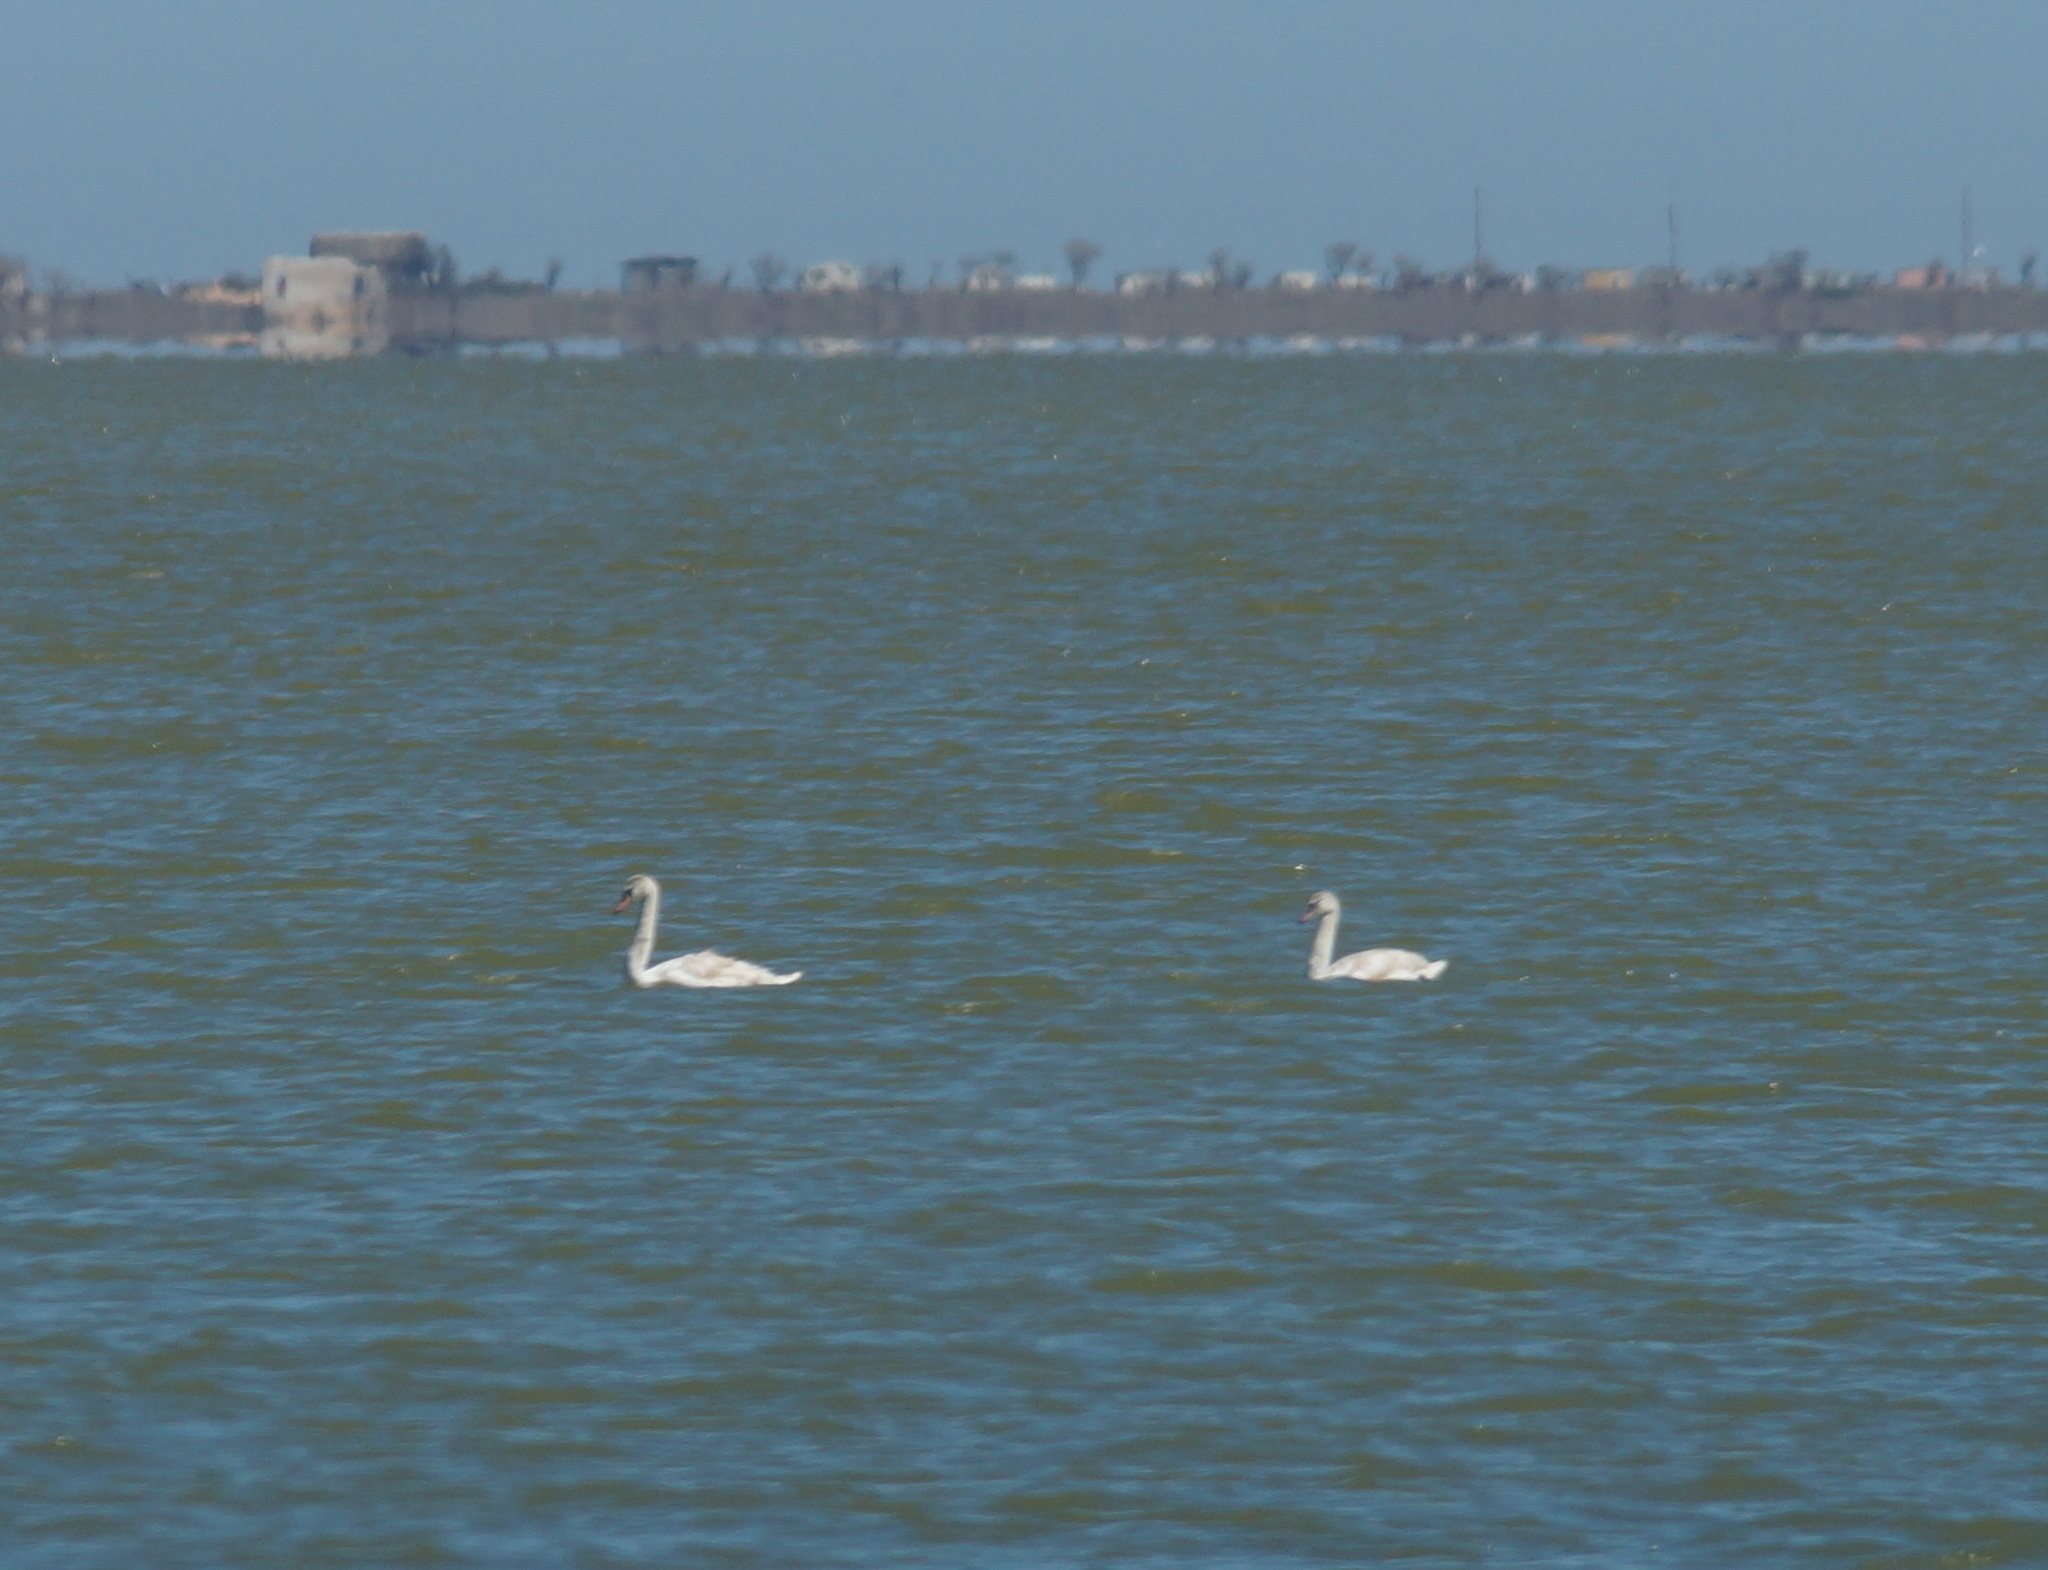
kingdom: Animalia
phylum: Chordata
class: Aves
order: Anseriformes
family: Anatidae
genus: Cygnus
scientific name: Cygnus olor
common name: Mute swan
